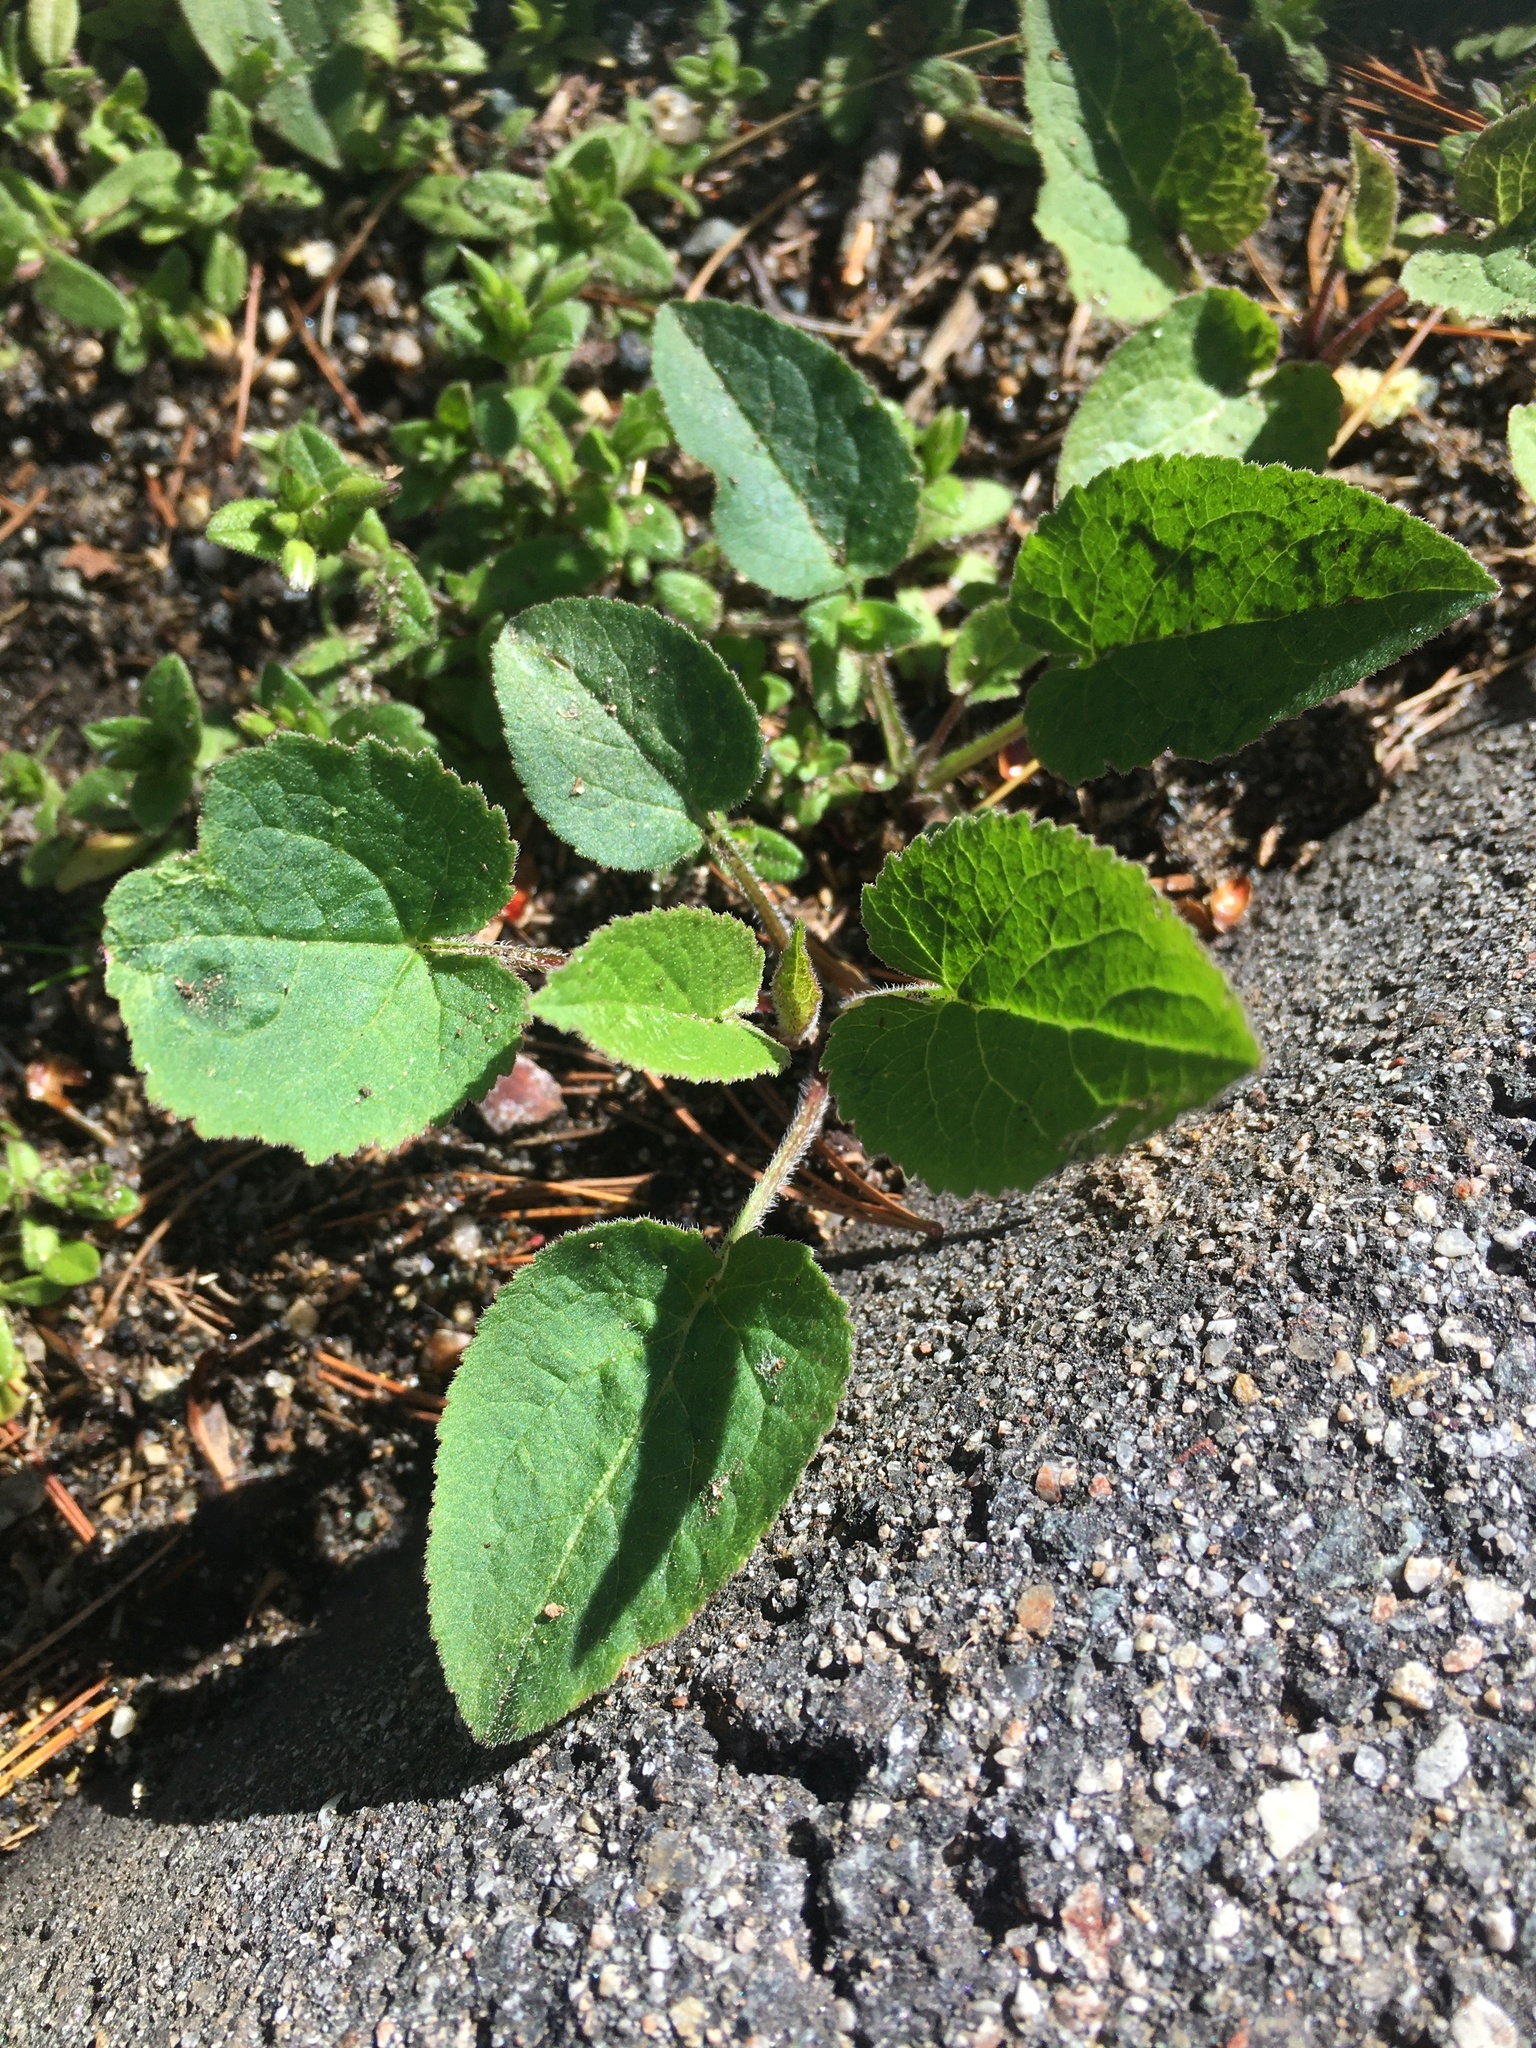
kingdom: Plantae
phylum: Tracheophyta
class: Magnoliopsida
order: Asterales
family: Campanulaceae
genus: Campanula
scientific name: Campanula rapunculoides
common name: Creeping bellflower
